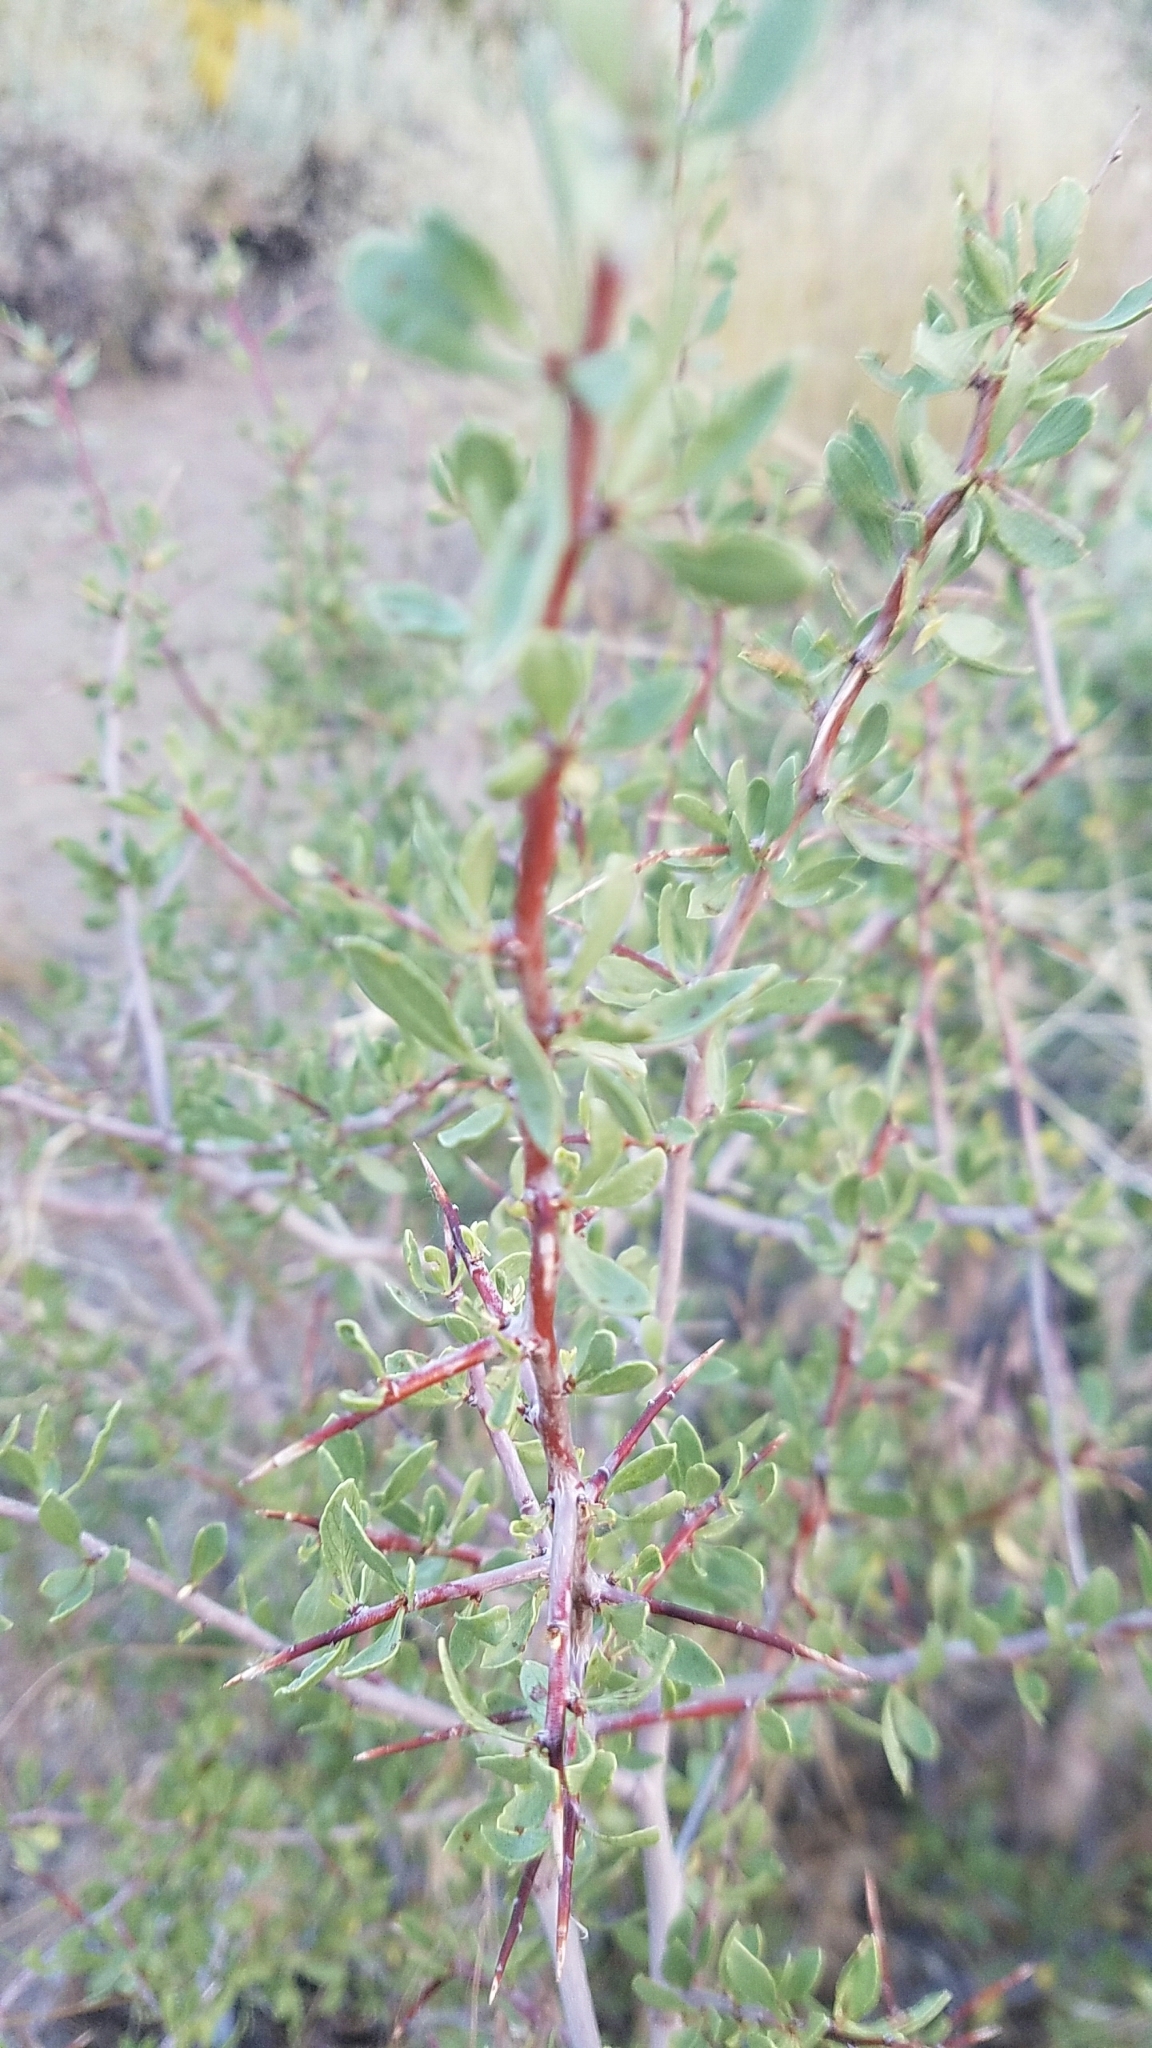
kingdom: Plantae
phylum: Tracheophyta
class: Magnoliopsida
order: Rosales
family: Rosaceae
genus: Prunus
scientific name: Prunus andersonii
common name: Desert peach
